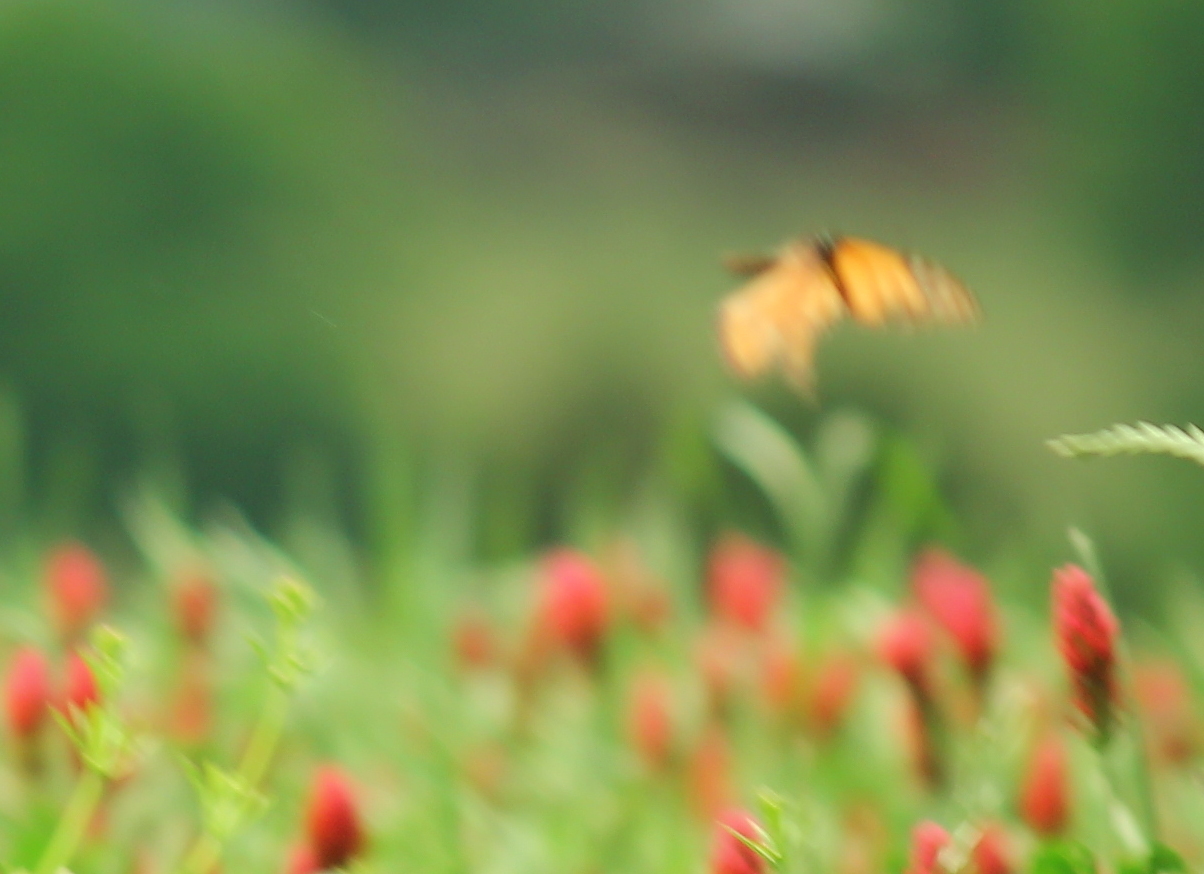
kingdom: Animalia
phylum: Arthropoda
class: Insecta
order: Lepidoptera
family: Nymphalidae
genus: Danaus
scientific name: Danaus plexippus
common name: Monarch
